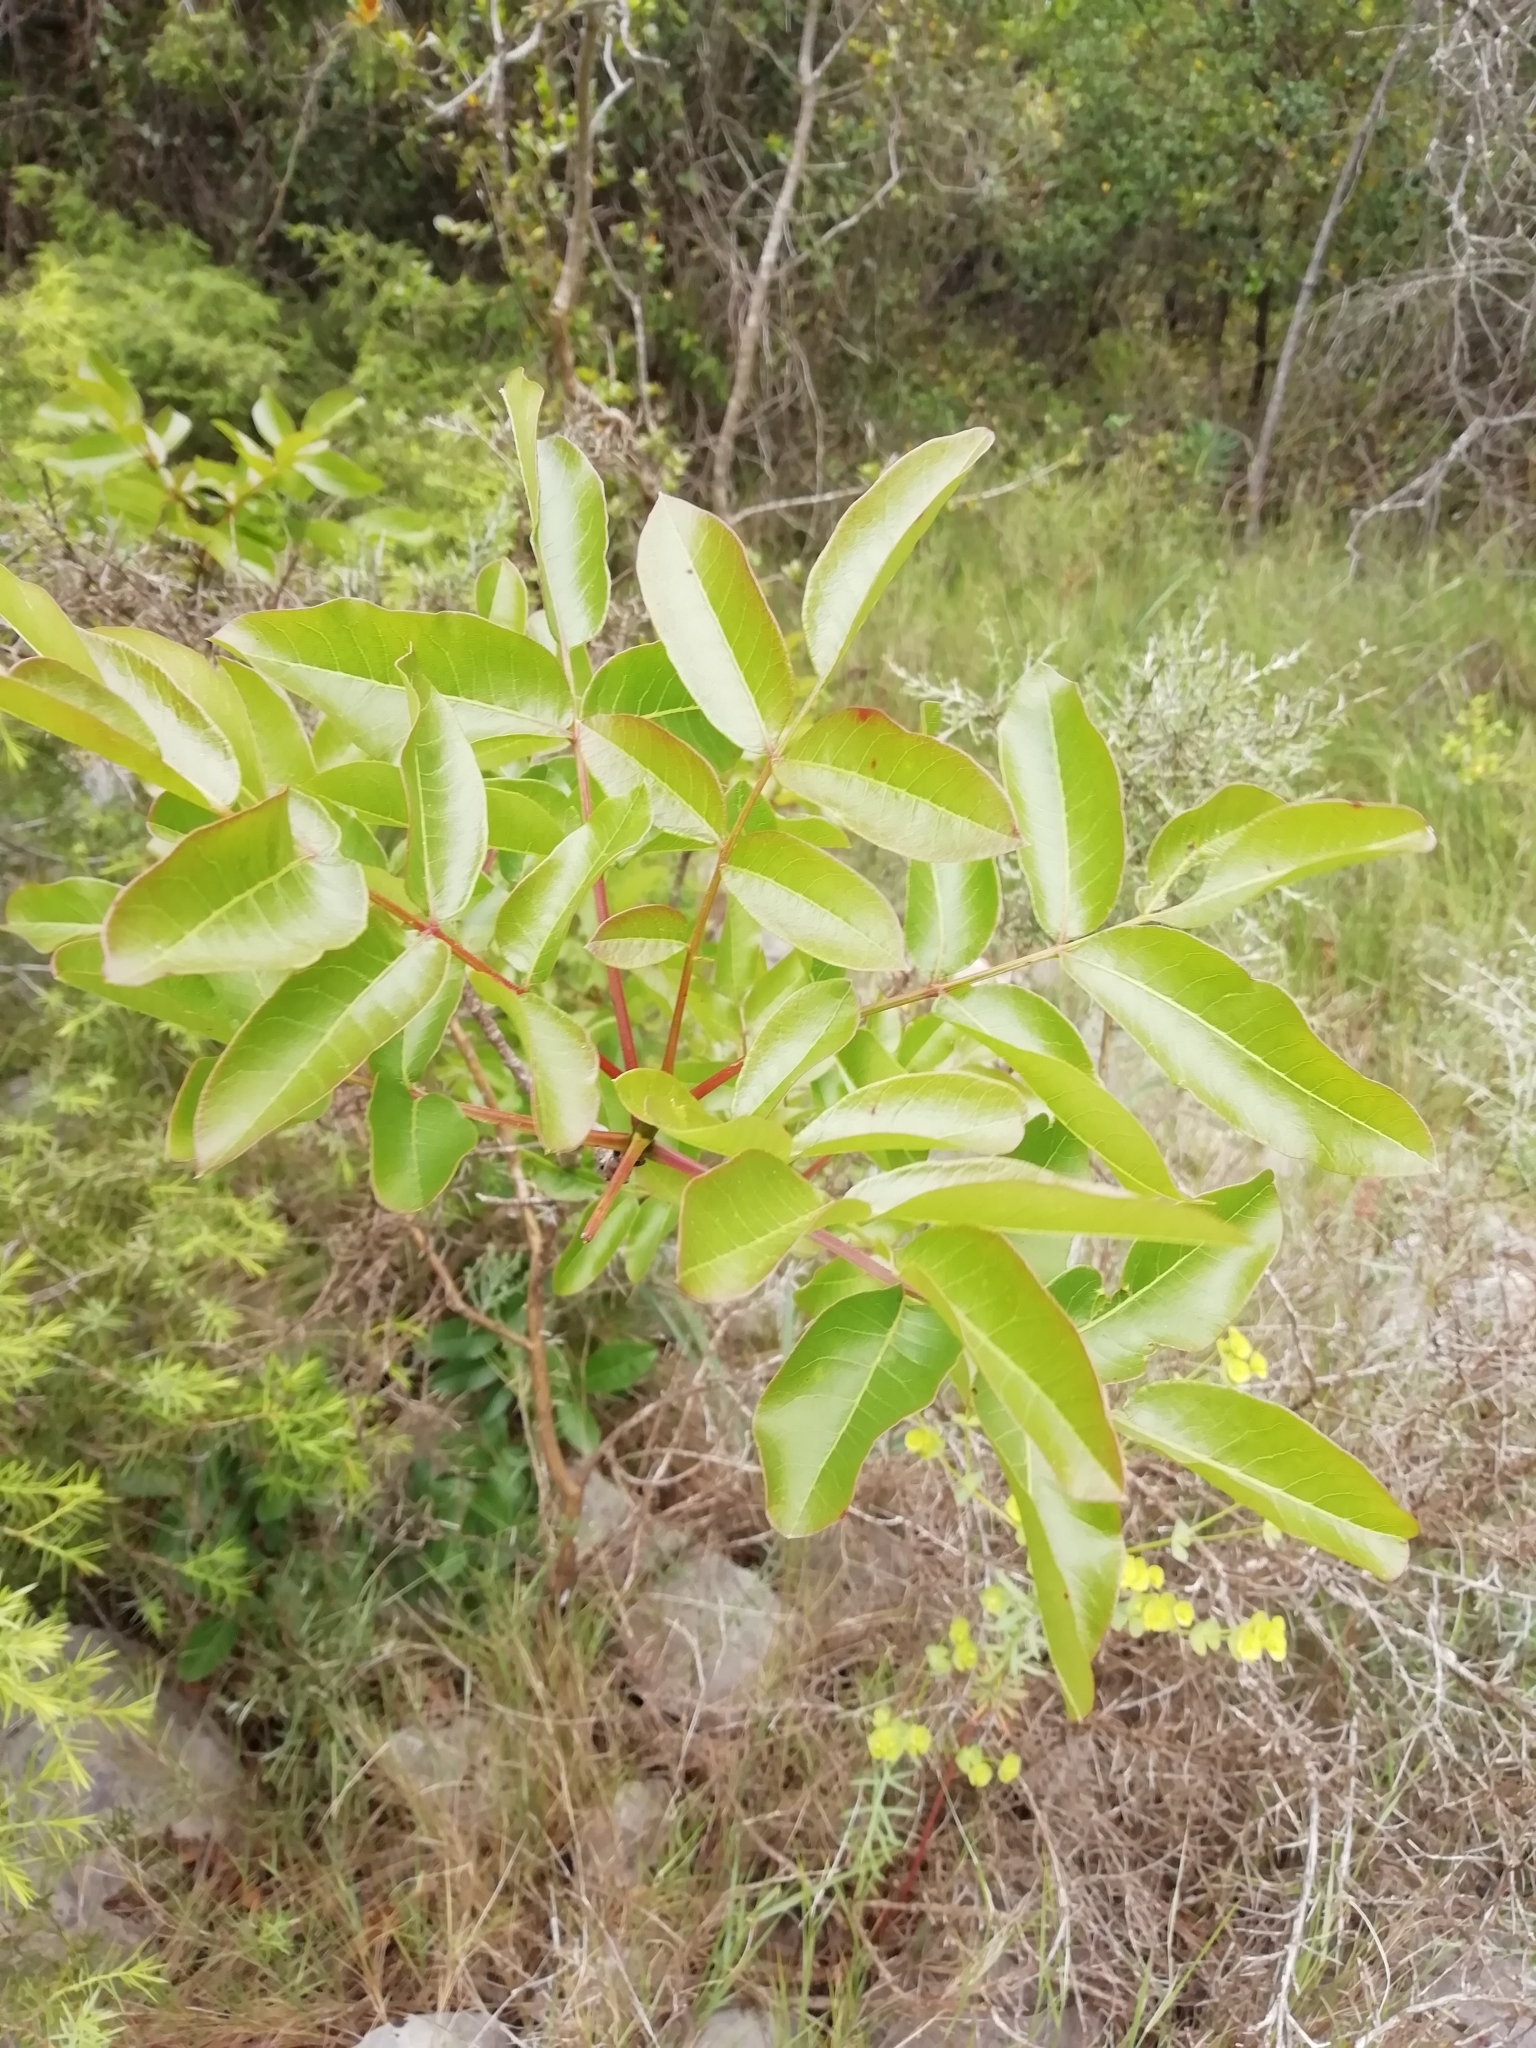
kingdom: Plantae
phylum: Tracheophyta
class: Magnoliopsida
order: Sapindales
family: Anacardiaceae
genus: Pistacia
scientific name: Pistacia terebinthus
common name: Terebinth
